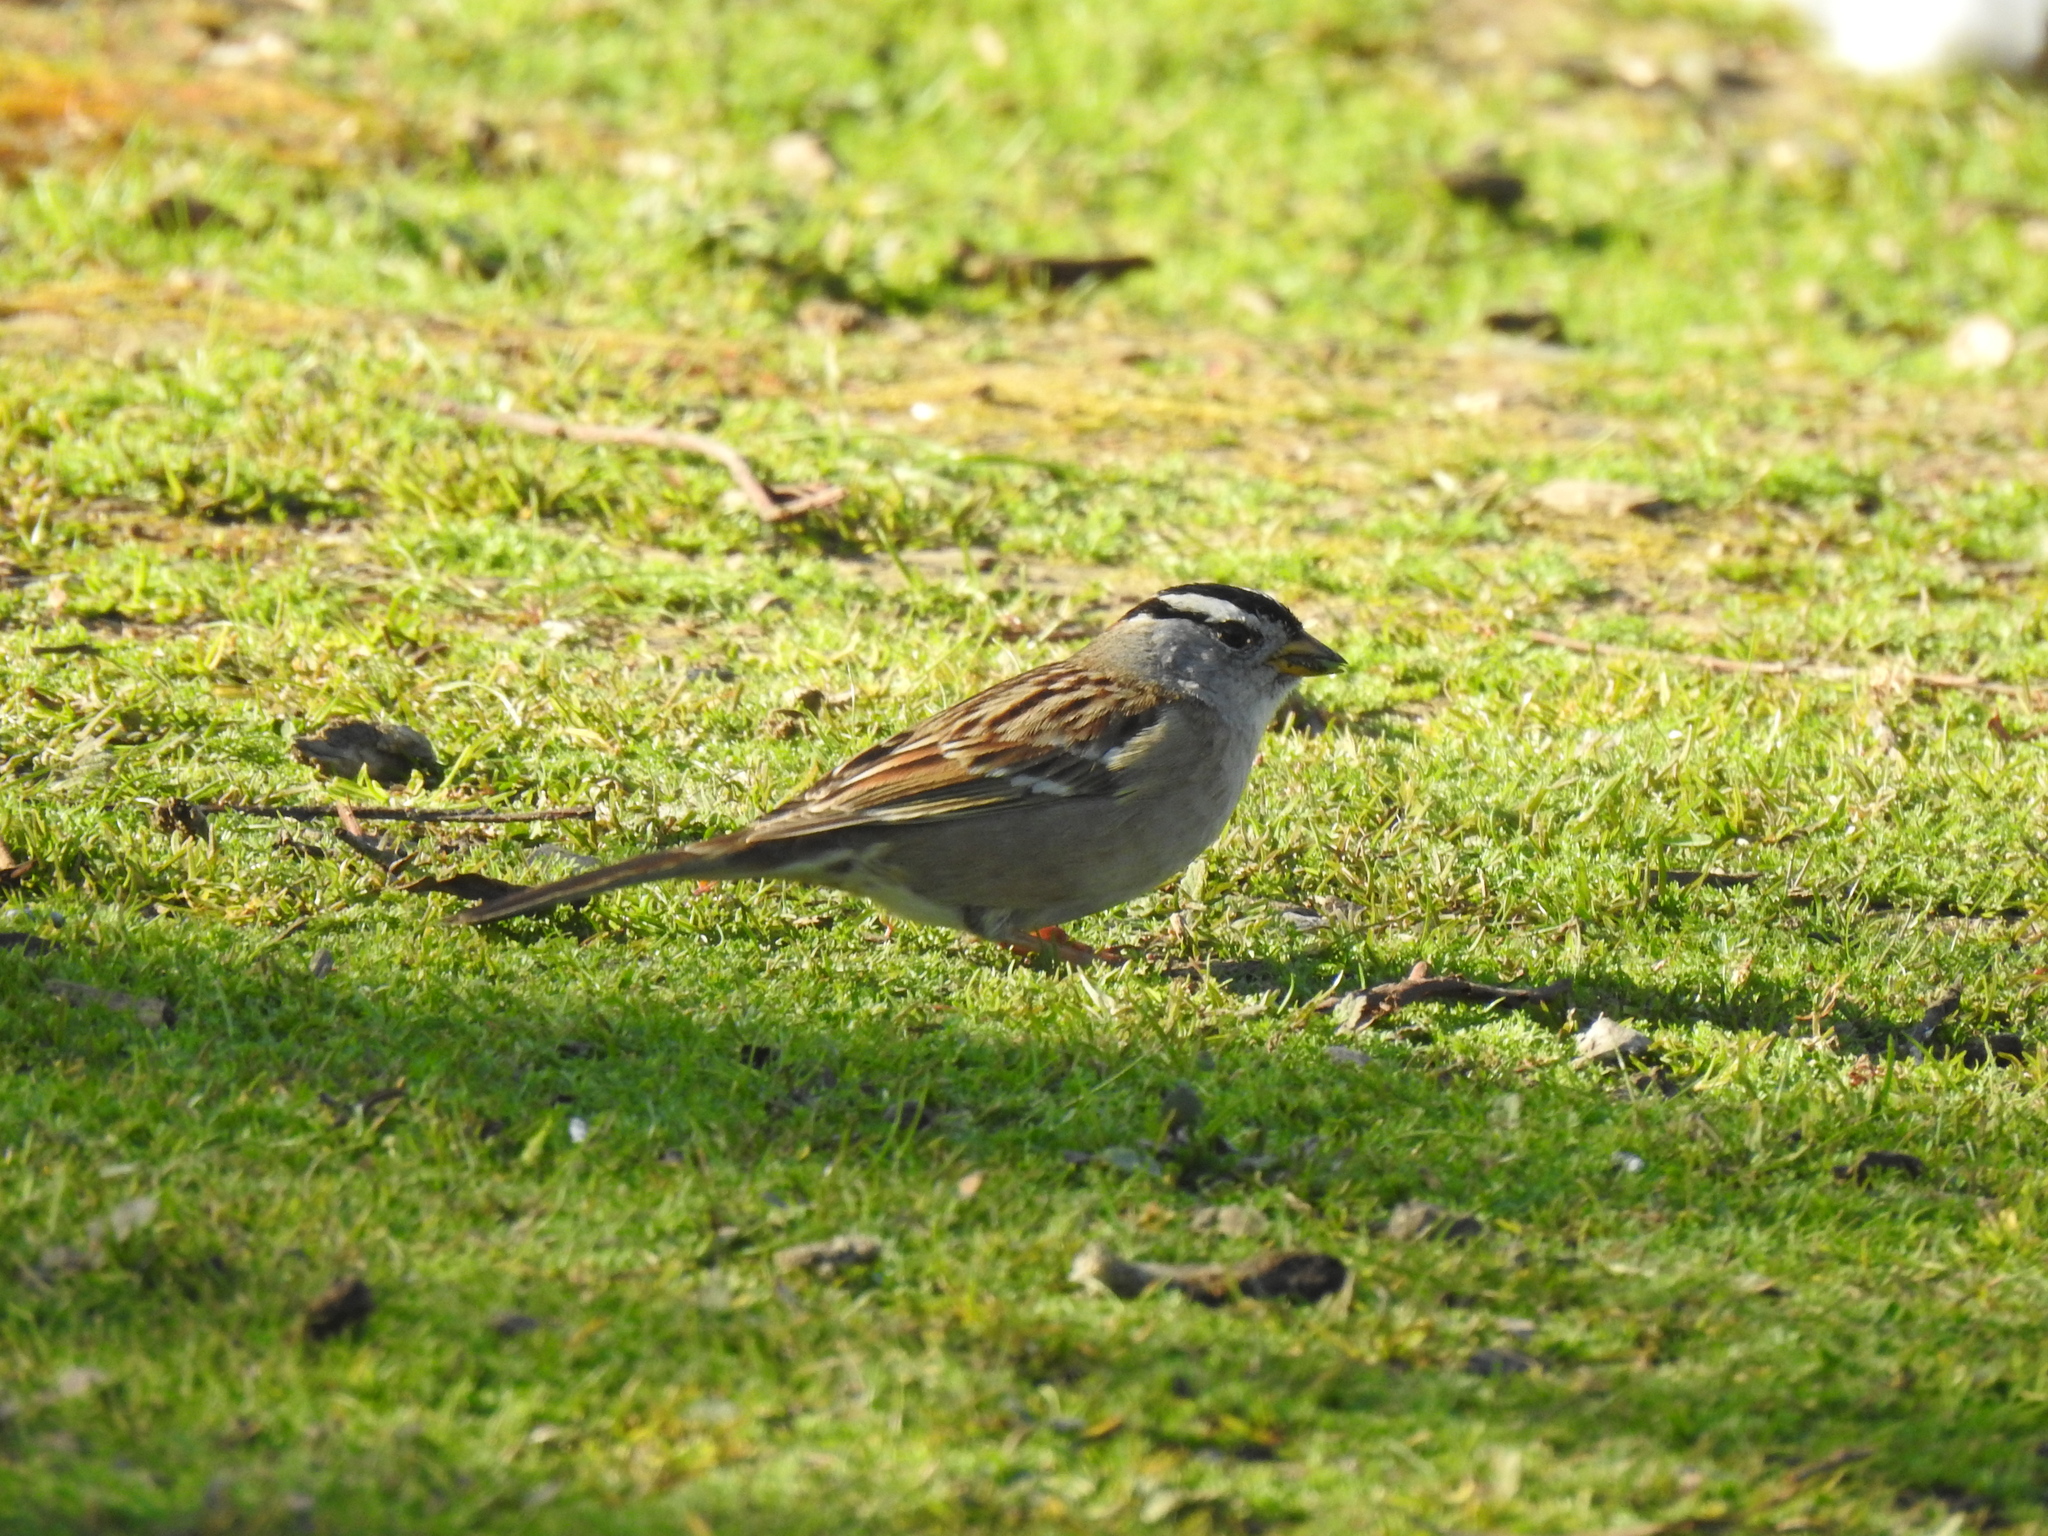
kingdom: Animalia
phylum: Chordata
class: Aves
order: Passeriformes
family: Passerellidae
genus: Zonotrichia
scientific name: Zonotrichia leucophrys
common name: White-crowned sparrow
